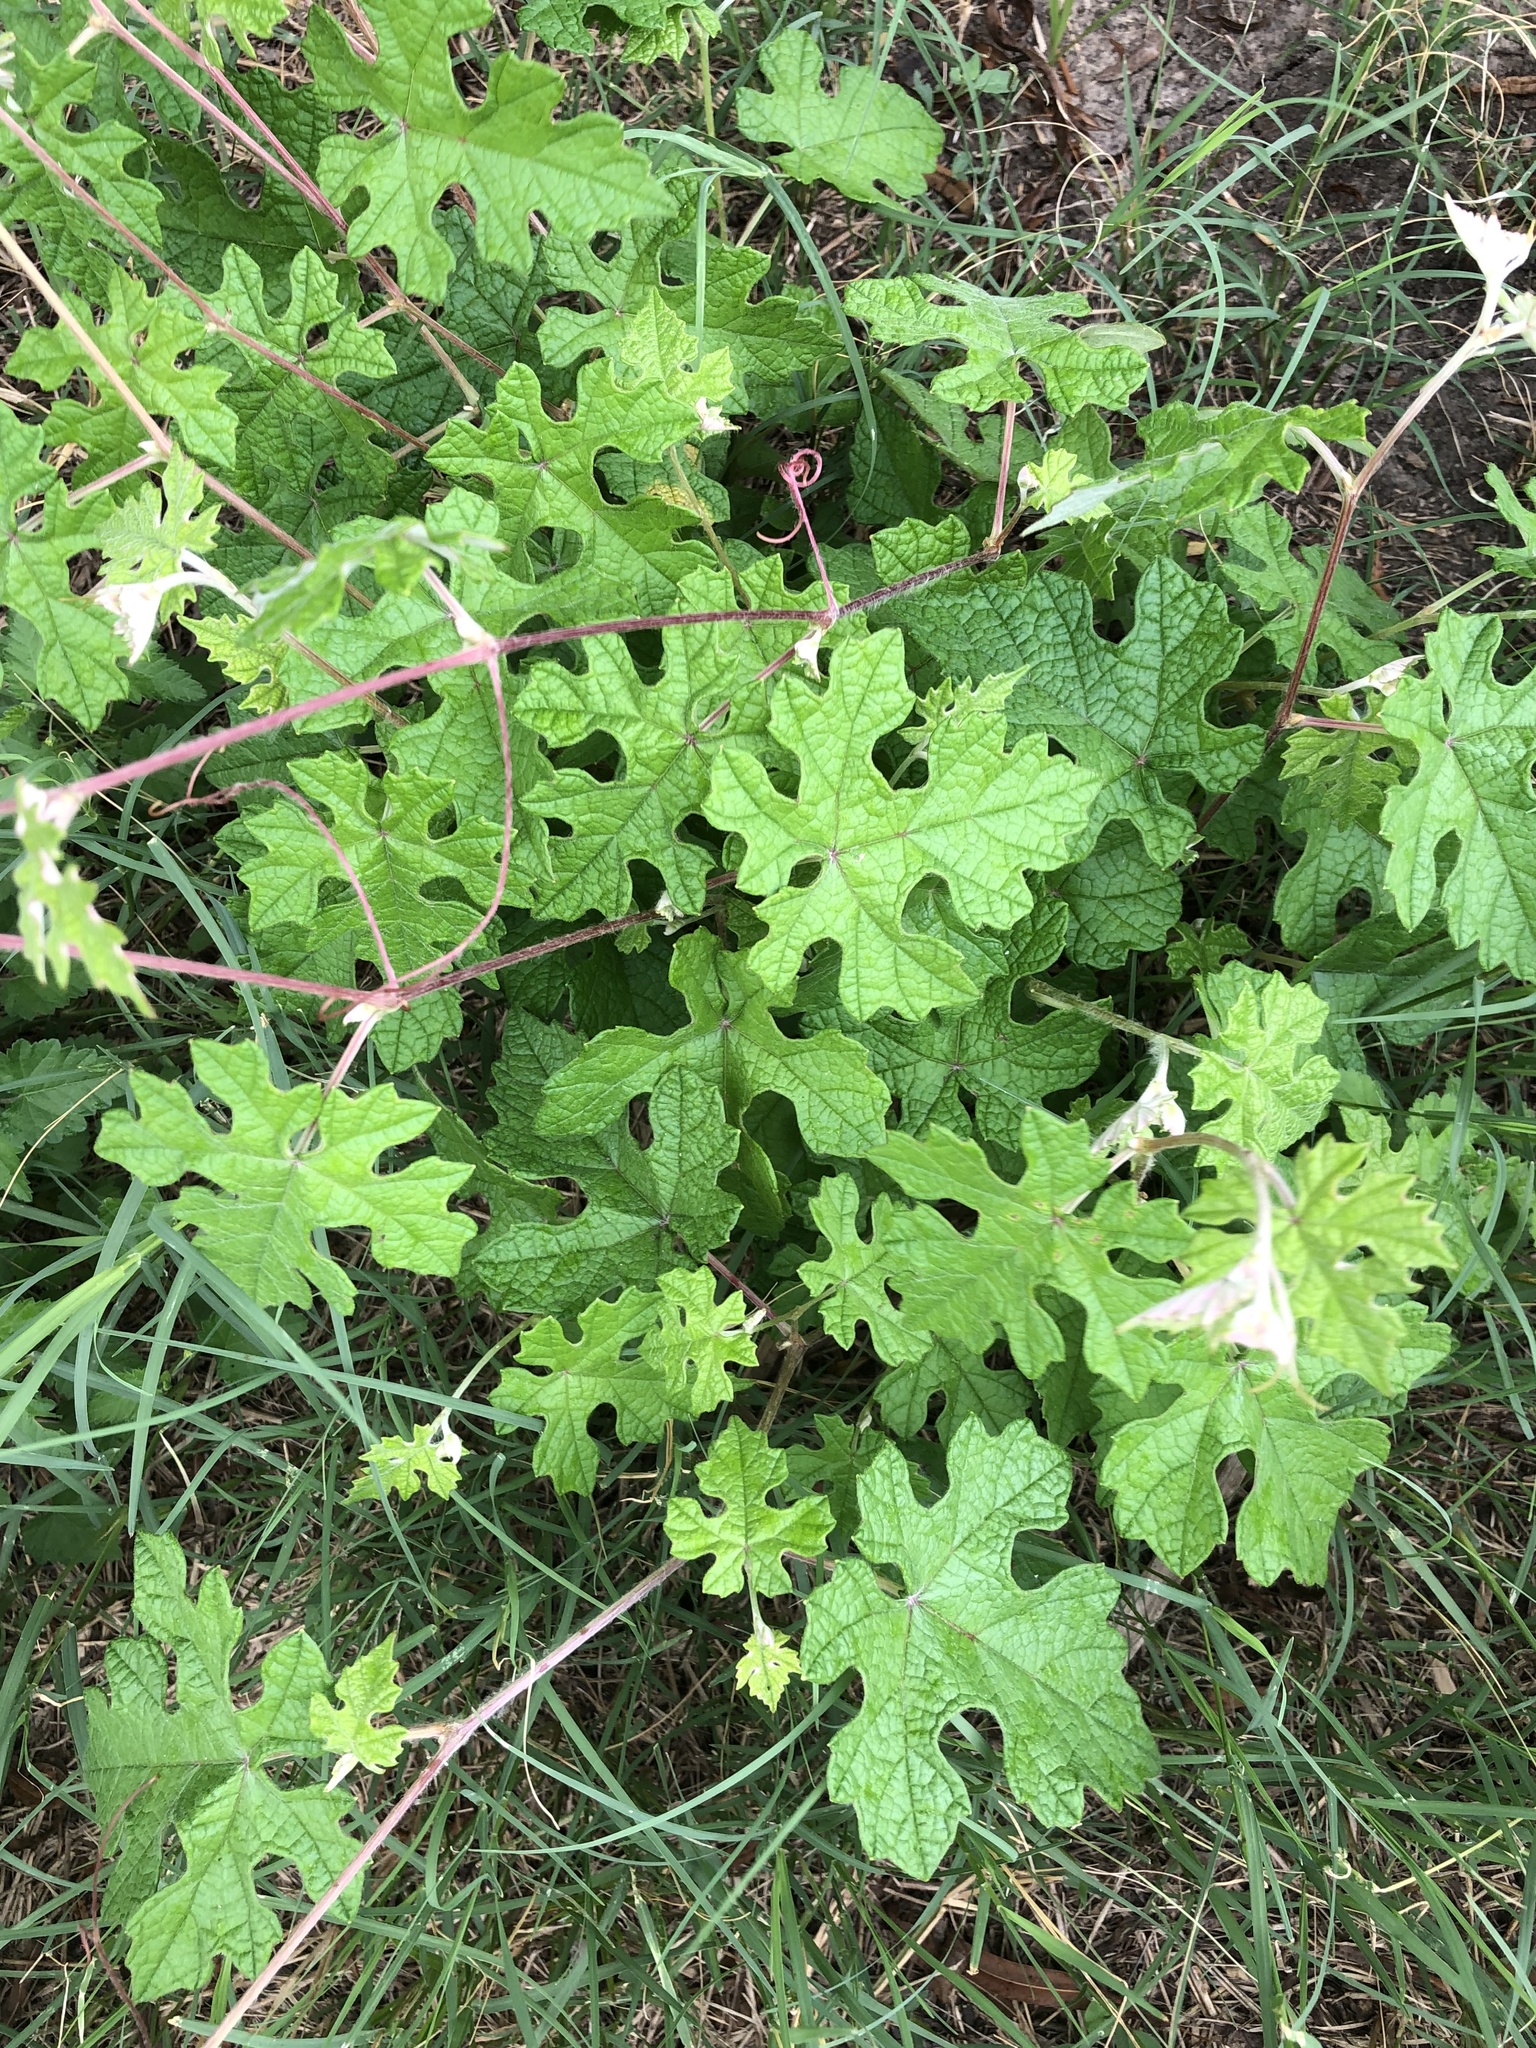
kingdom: Plantae
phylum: Tracheophyta
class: Magnoliopsida
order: Vitales
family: Vitaceae
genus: Vitis
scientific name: Vitis mustangensis
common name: Mustang grape
